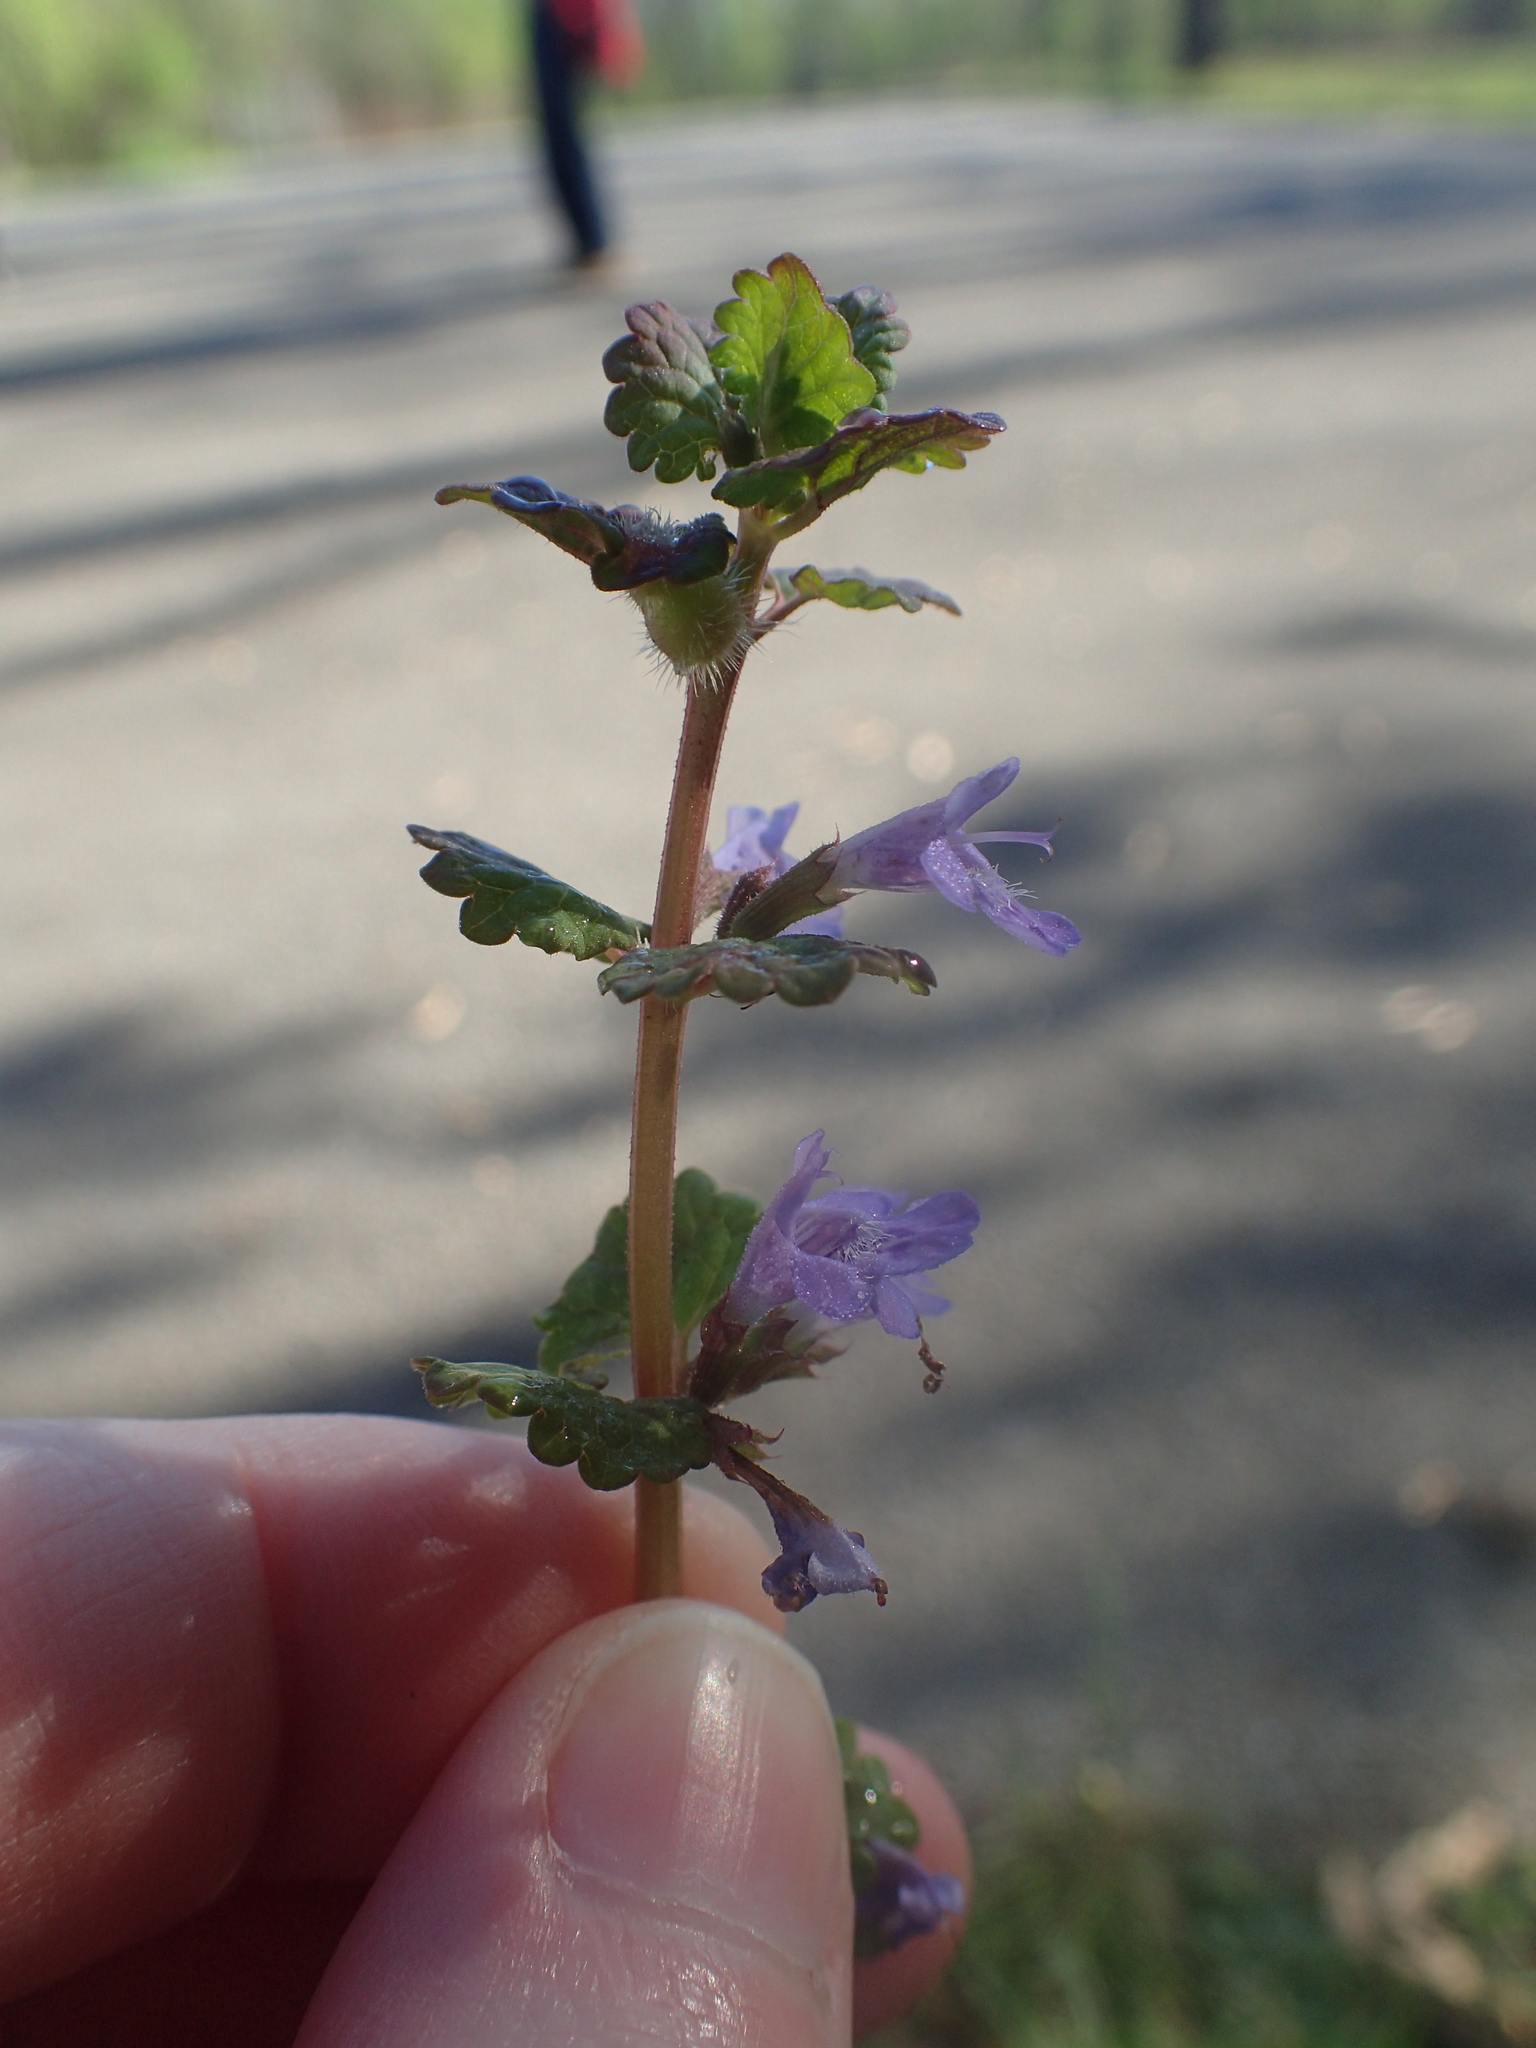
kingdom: Plantae
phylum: Tracheophyta
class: Magnoliopsida
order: Lamiales
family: Lamiaceae
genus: Glechoma
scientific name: Glechoma hederacea
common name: Ground ivy
